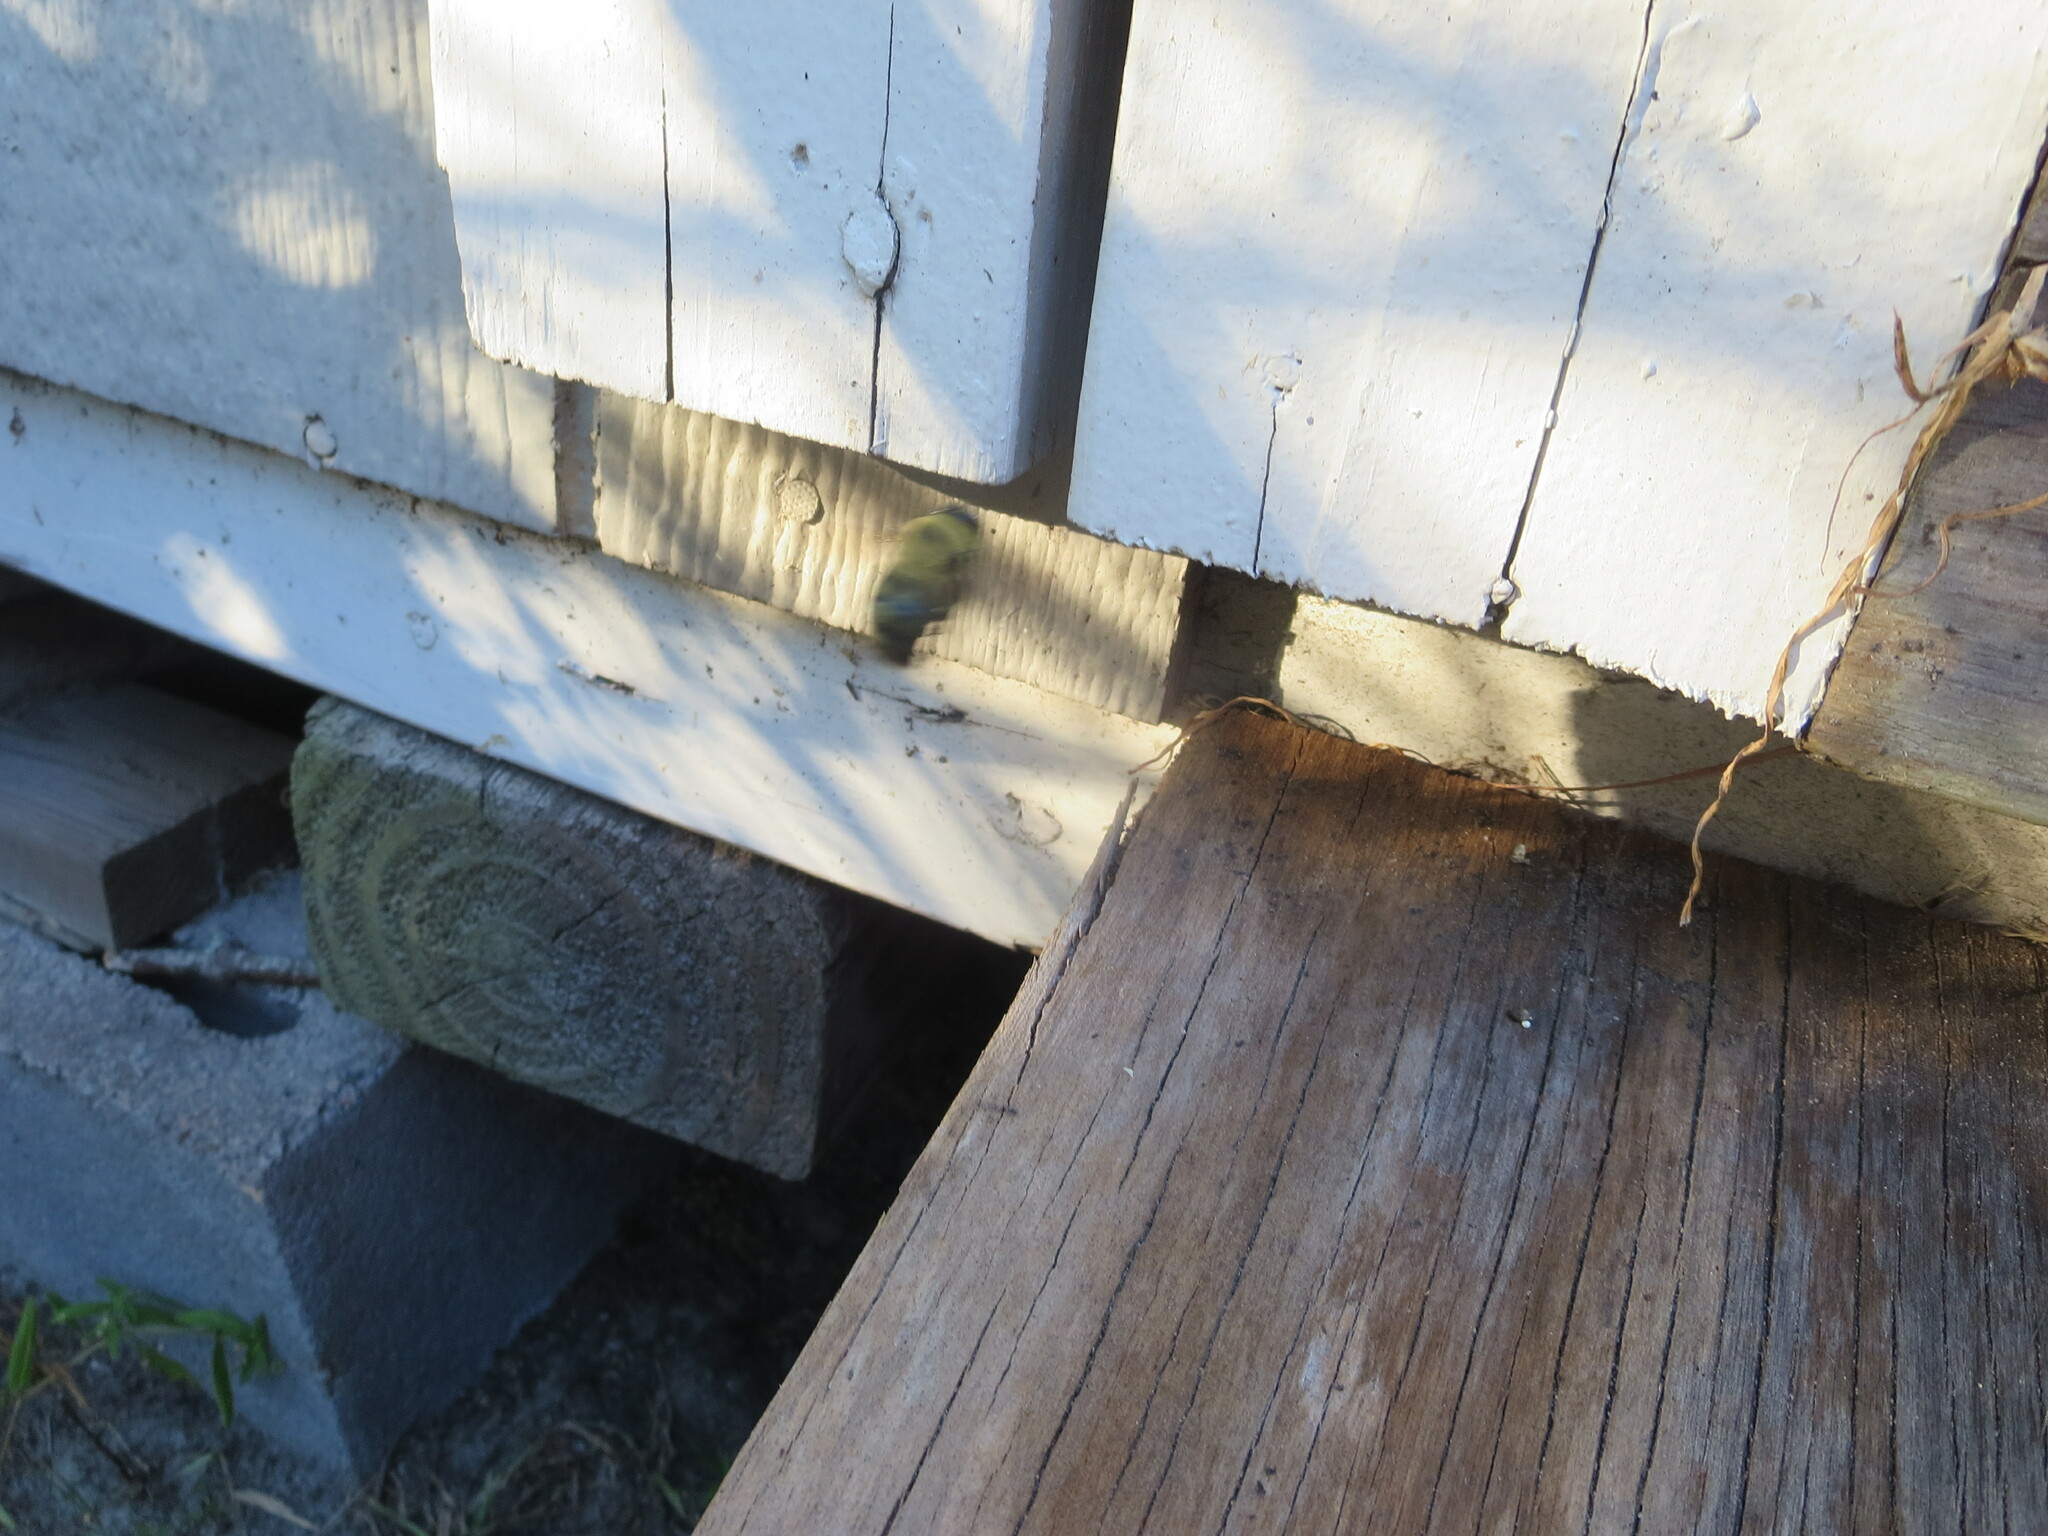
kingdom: Animalia
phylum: Arthropoda
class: Insecta
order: Hymenoptera
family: Apidae
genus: Xylocopa
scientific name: Xylocopa virginica
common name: Carpenter bee
